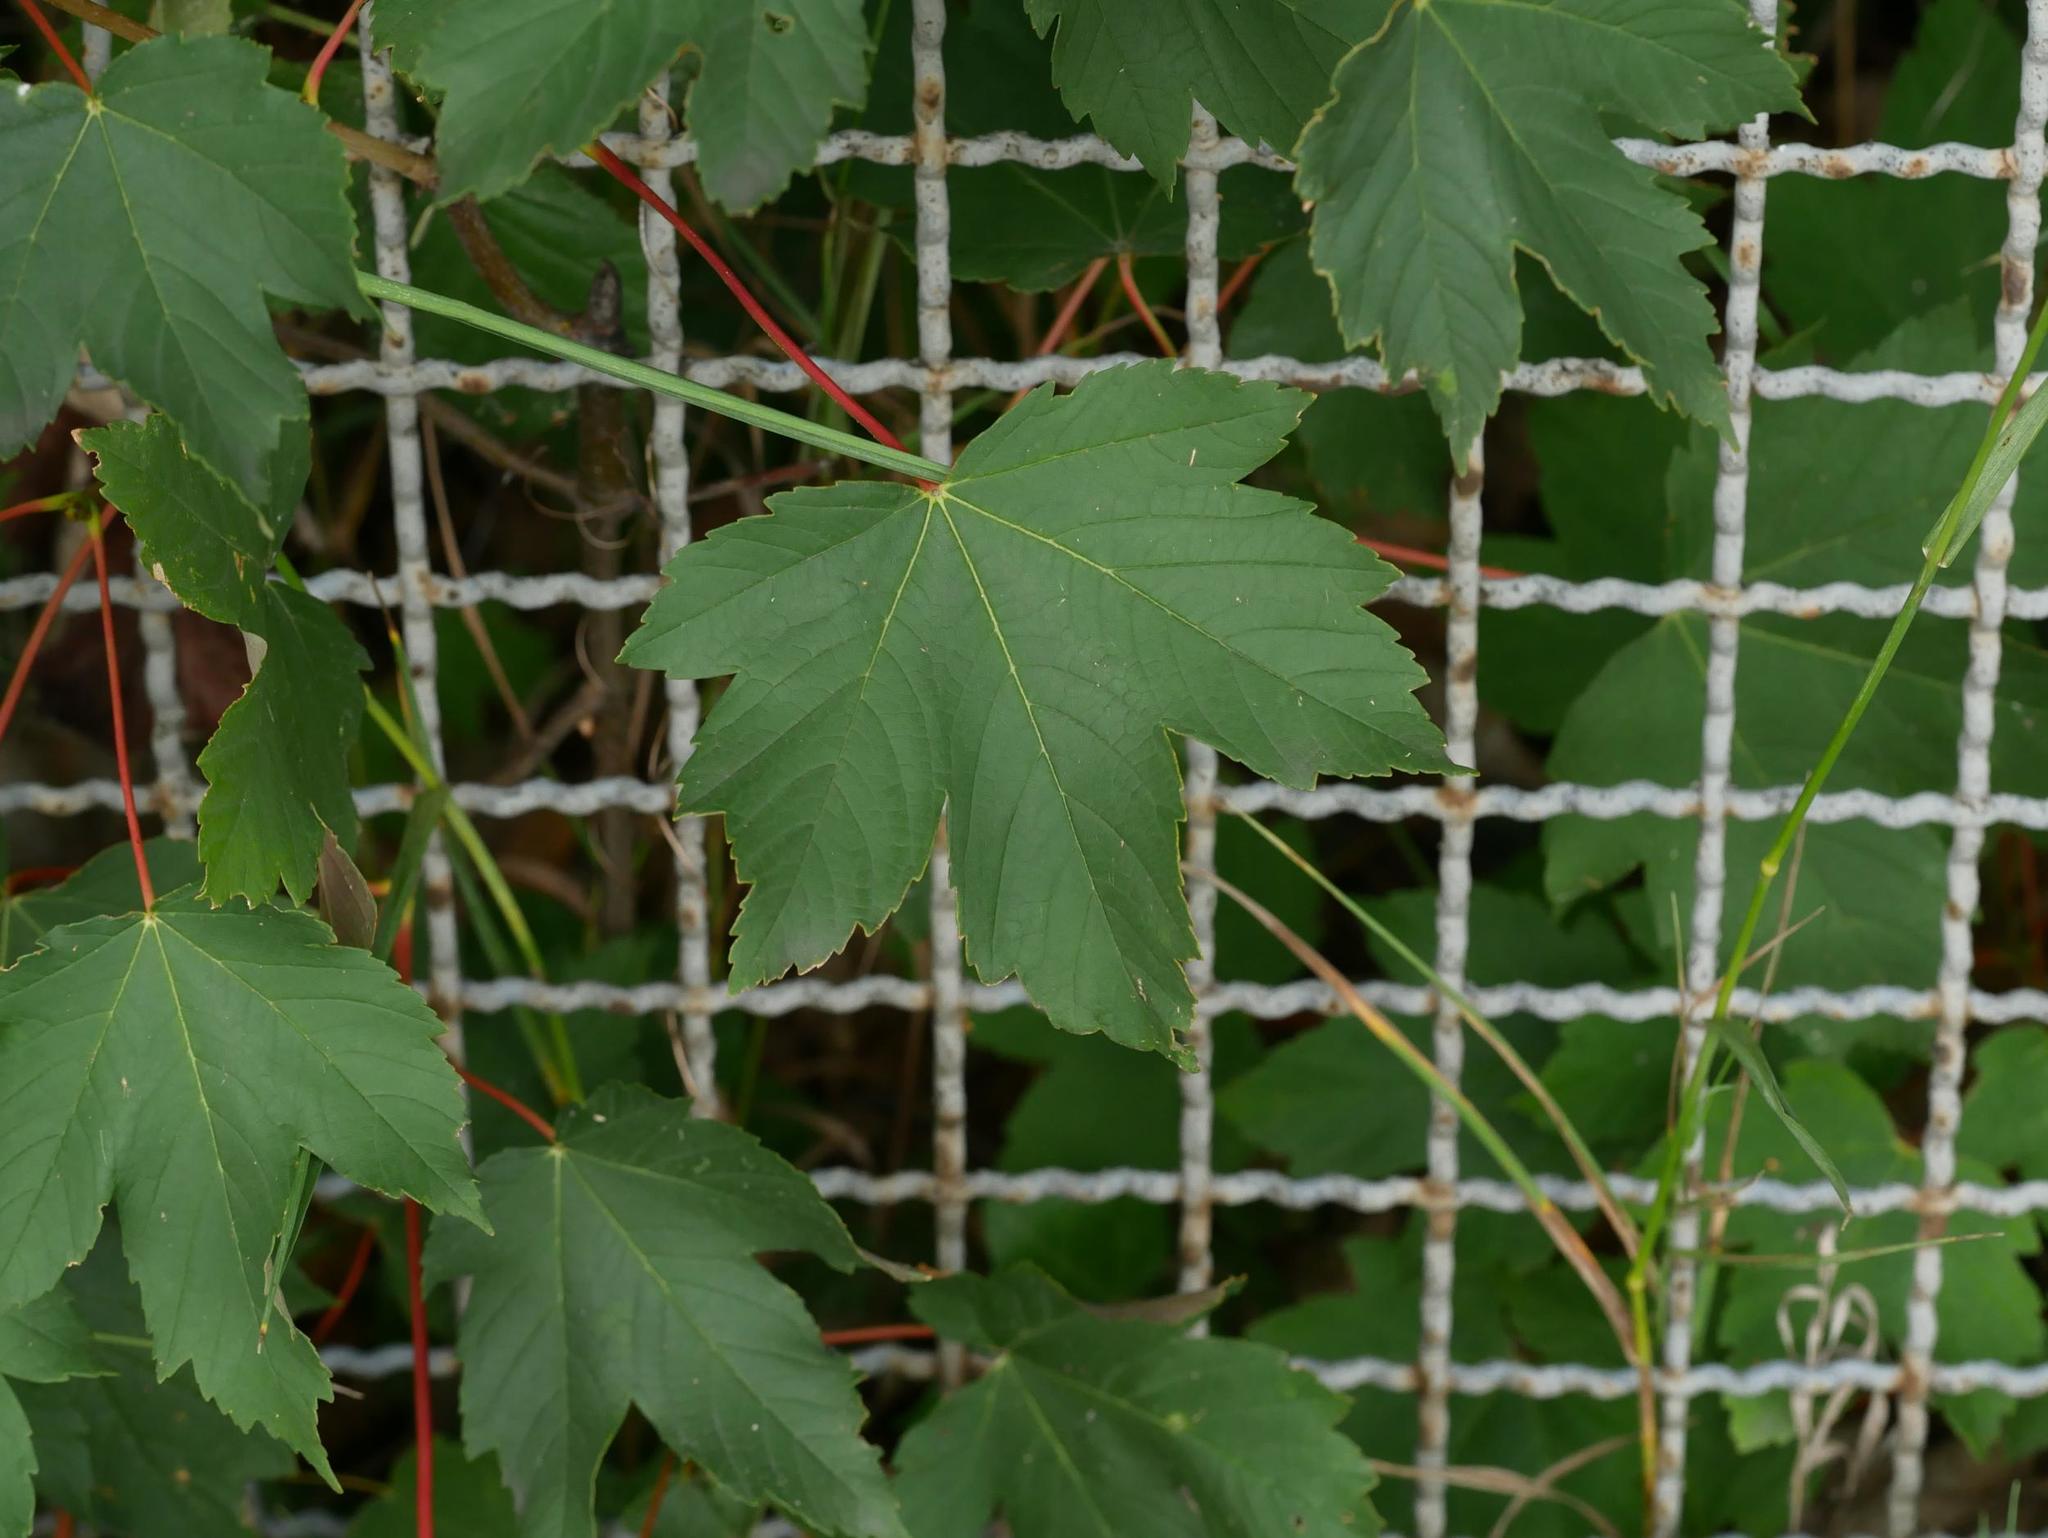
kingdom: Plantae
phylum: Tracheophyta
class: Magnoliopsida
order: Sapindales
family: Sapindaceae
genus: Acer
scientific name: Acer pseudoplatanus
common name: Sycamore
